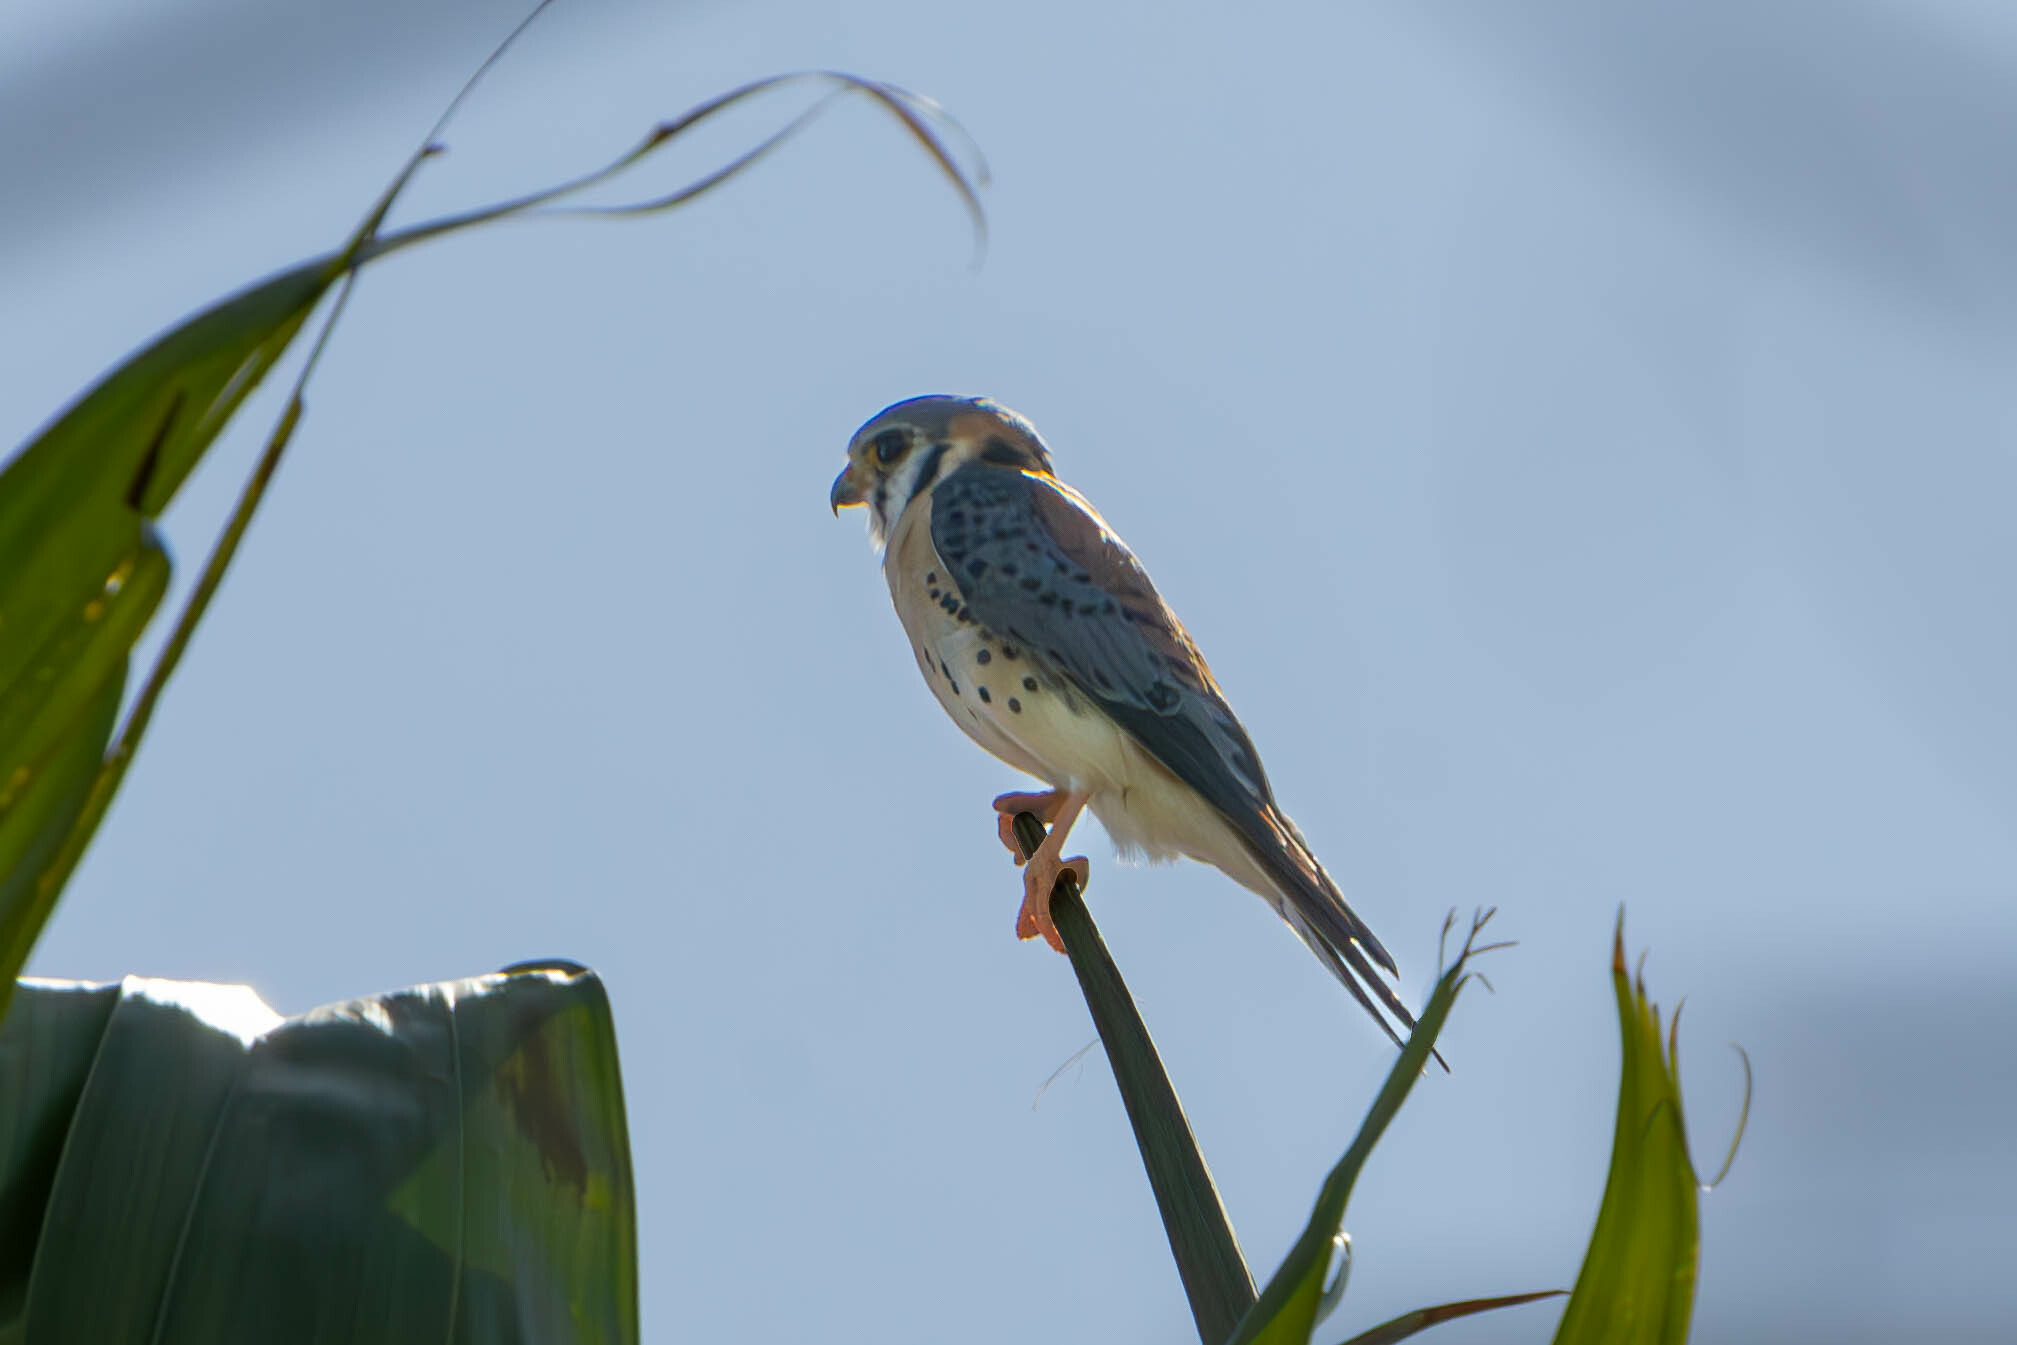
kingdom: Animalia
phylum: Chordata
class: Aves
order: Falconiformes
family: Falconidae
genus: Falco
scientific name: Falco sparverius
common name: American kestrel
